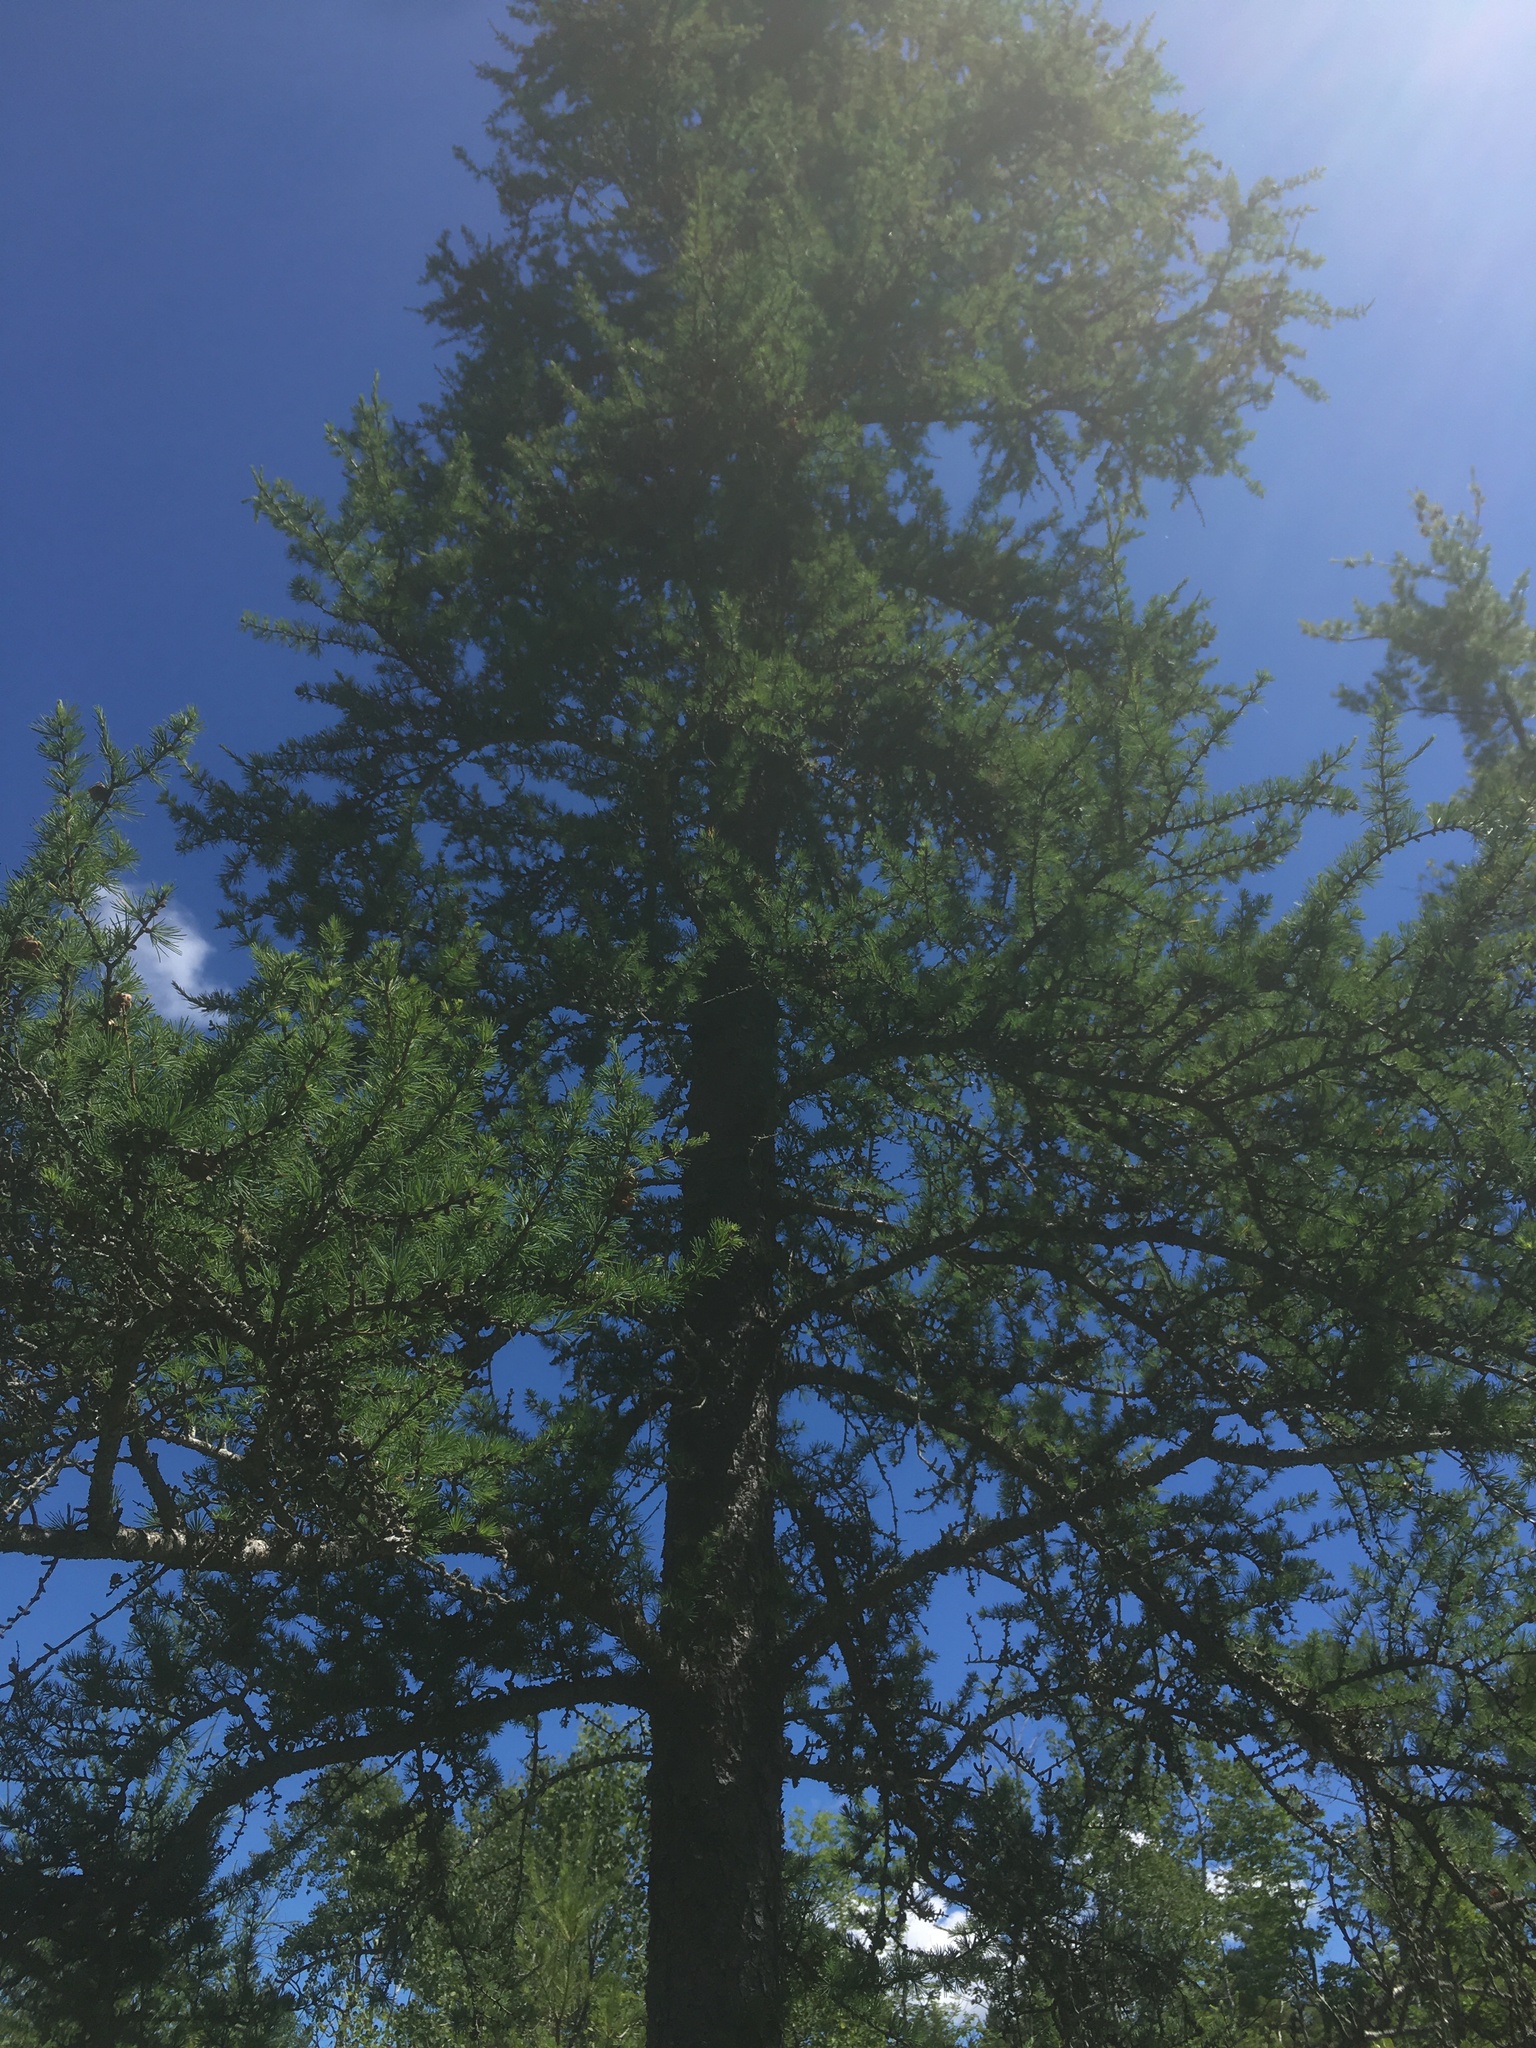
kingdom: Plantae
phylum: Tracheophyta
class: Pinopsida
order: Pinales
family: Pinaceae
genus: Larix
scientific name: Larix laricina
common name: American larch
